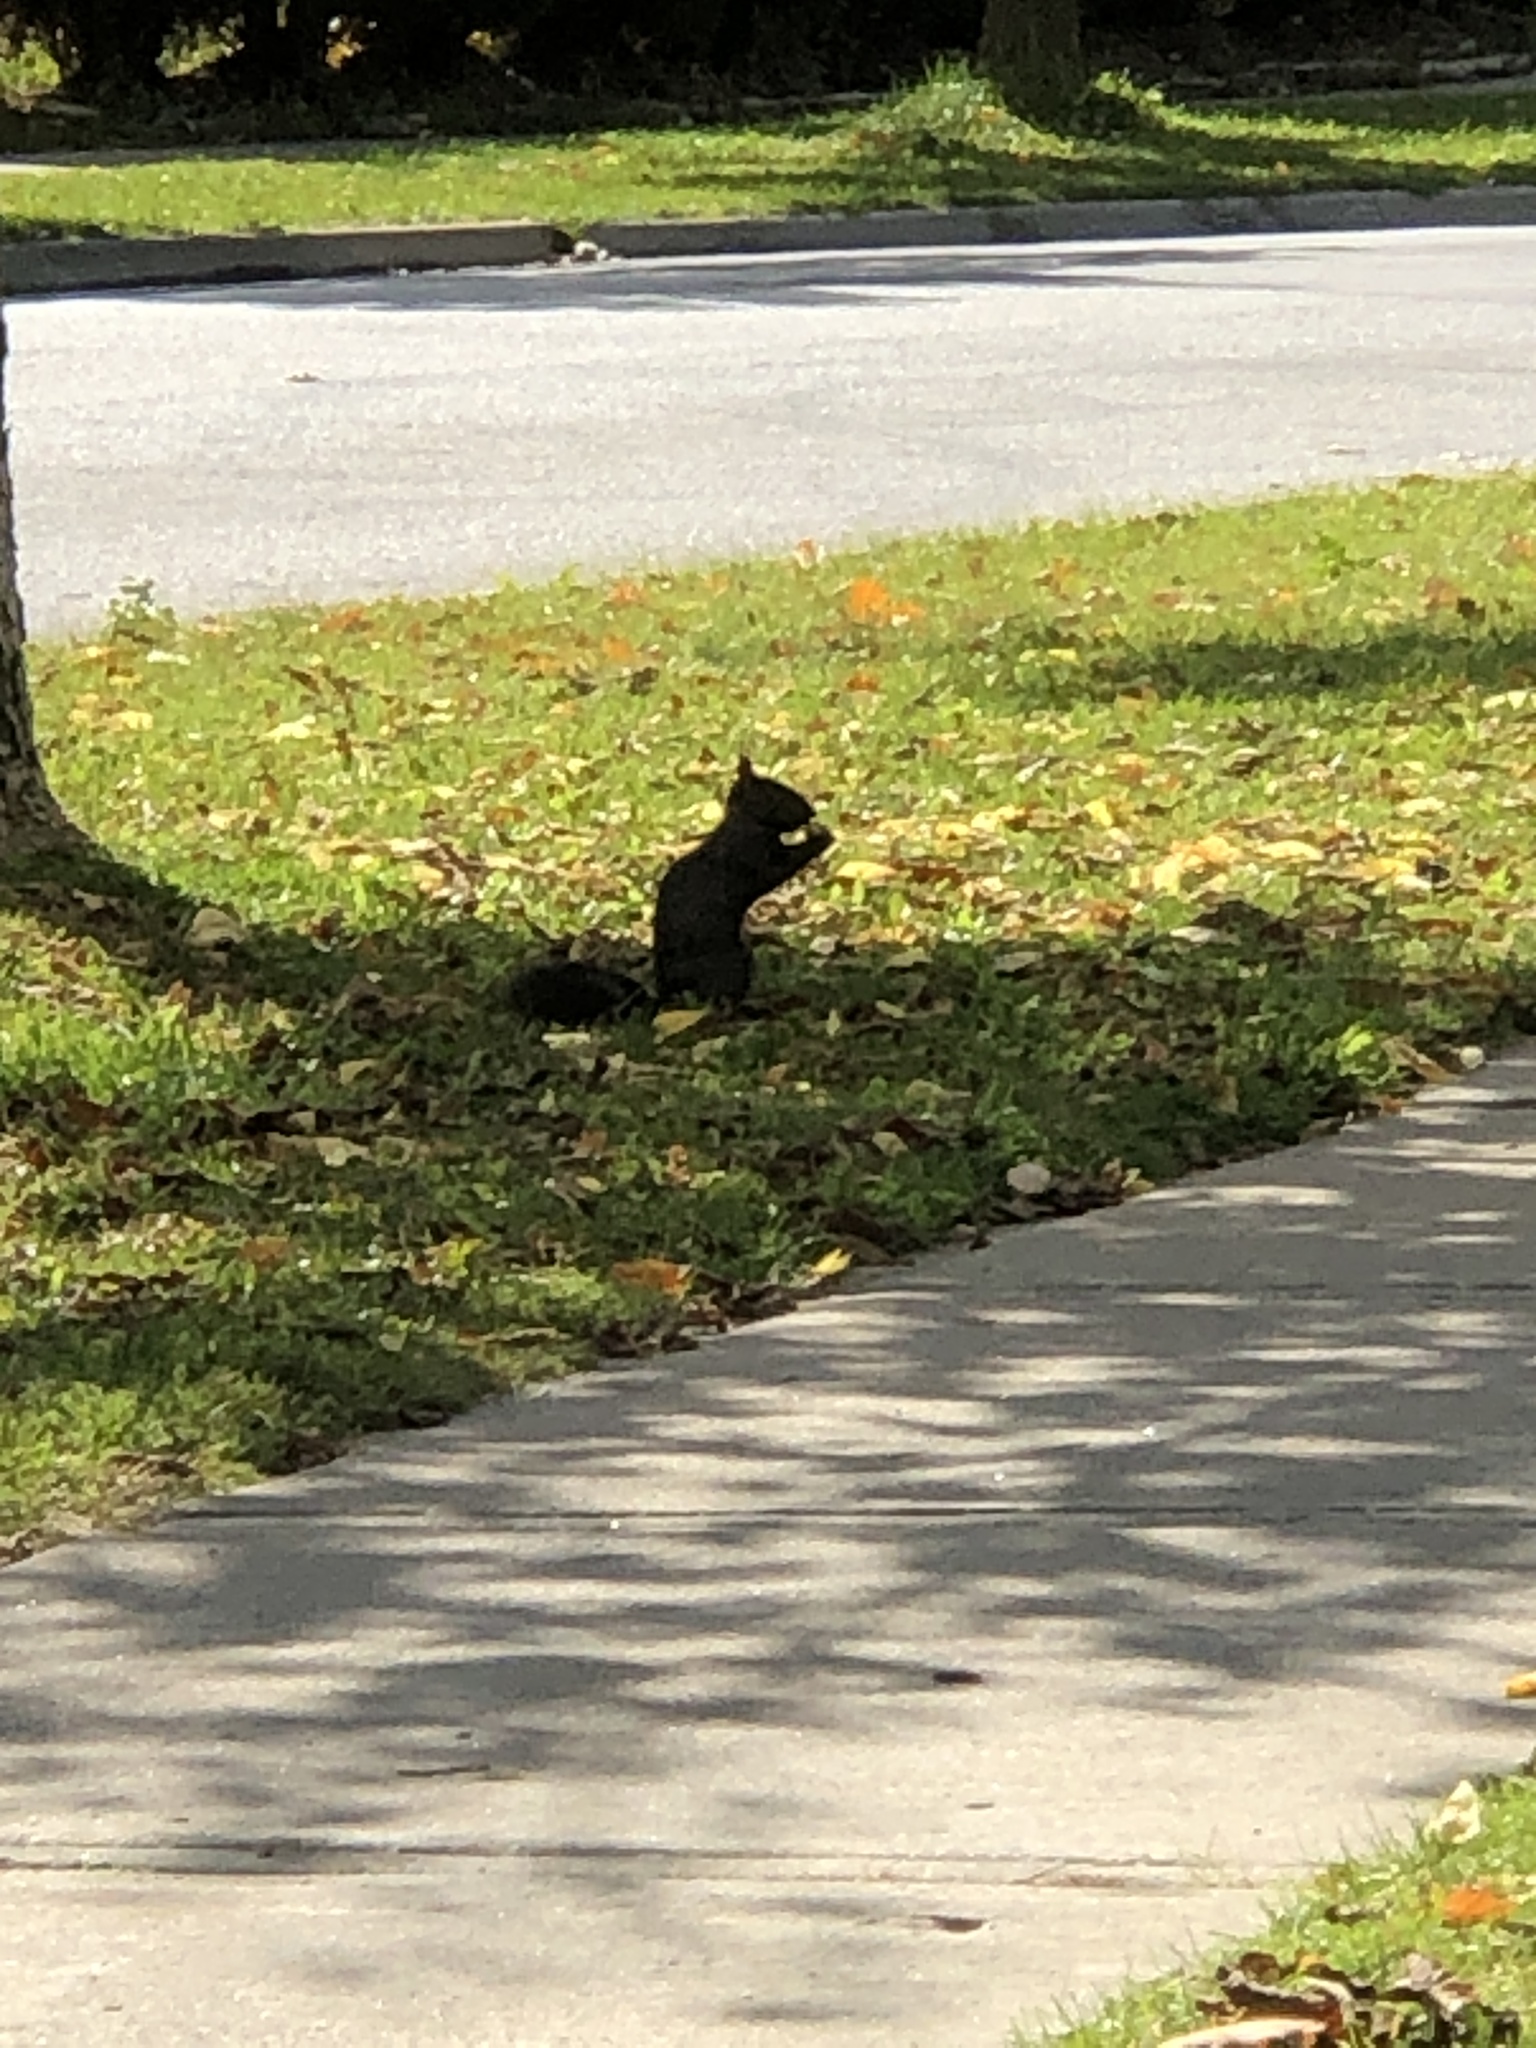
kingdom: Animalia
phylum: Chordata
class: Mammalia
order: Rodentia
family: Sciuridae
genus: Sciurus
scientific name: Sciurus carolinensis
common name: Eastern gray squirrel
